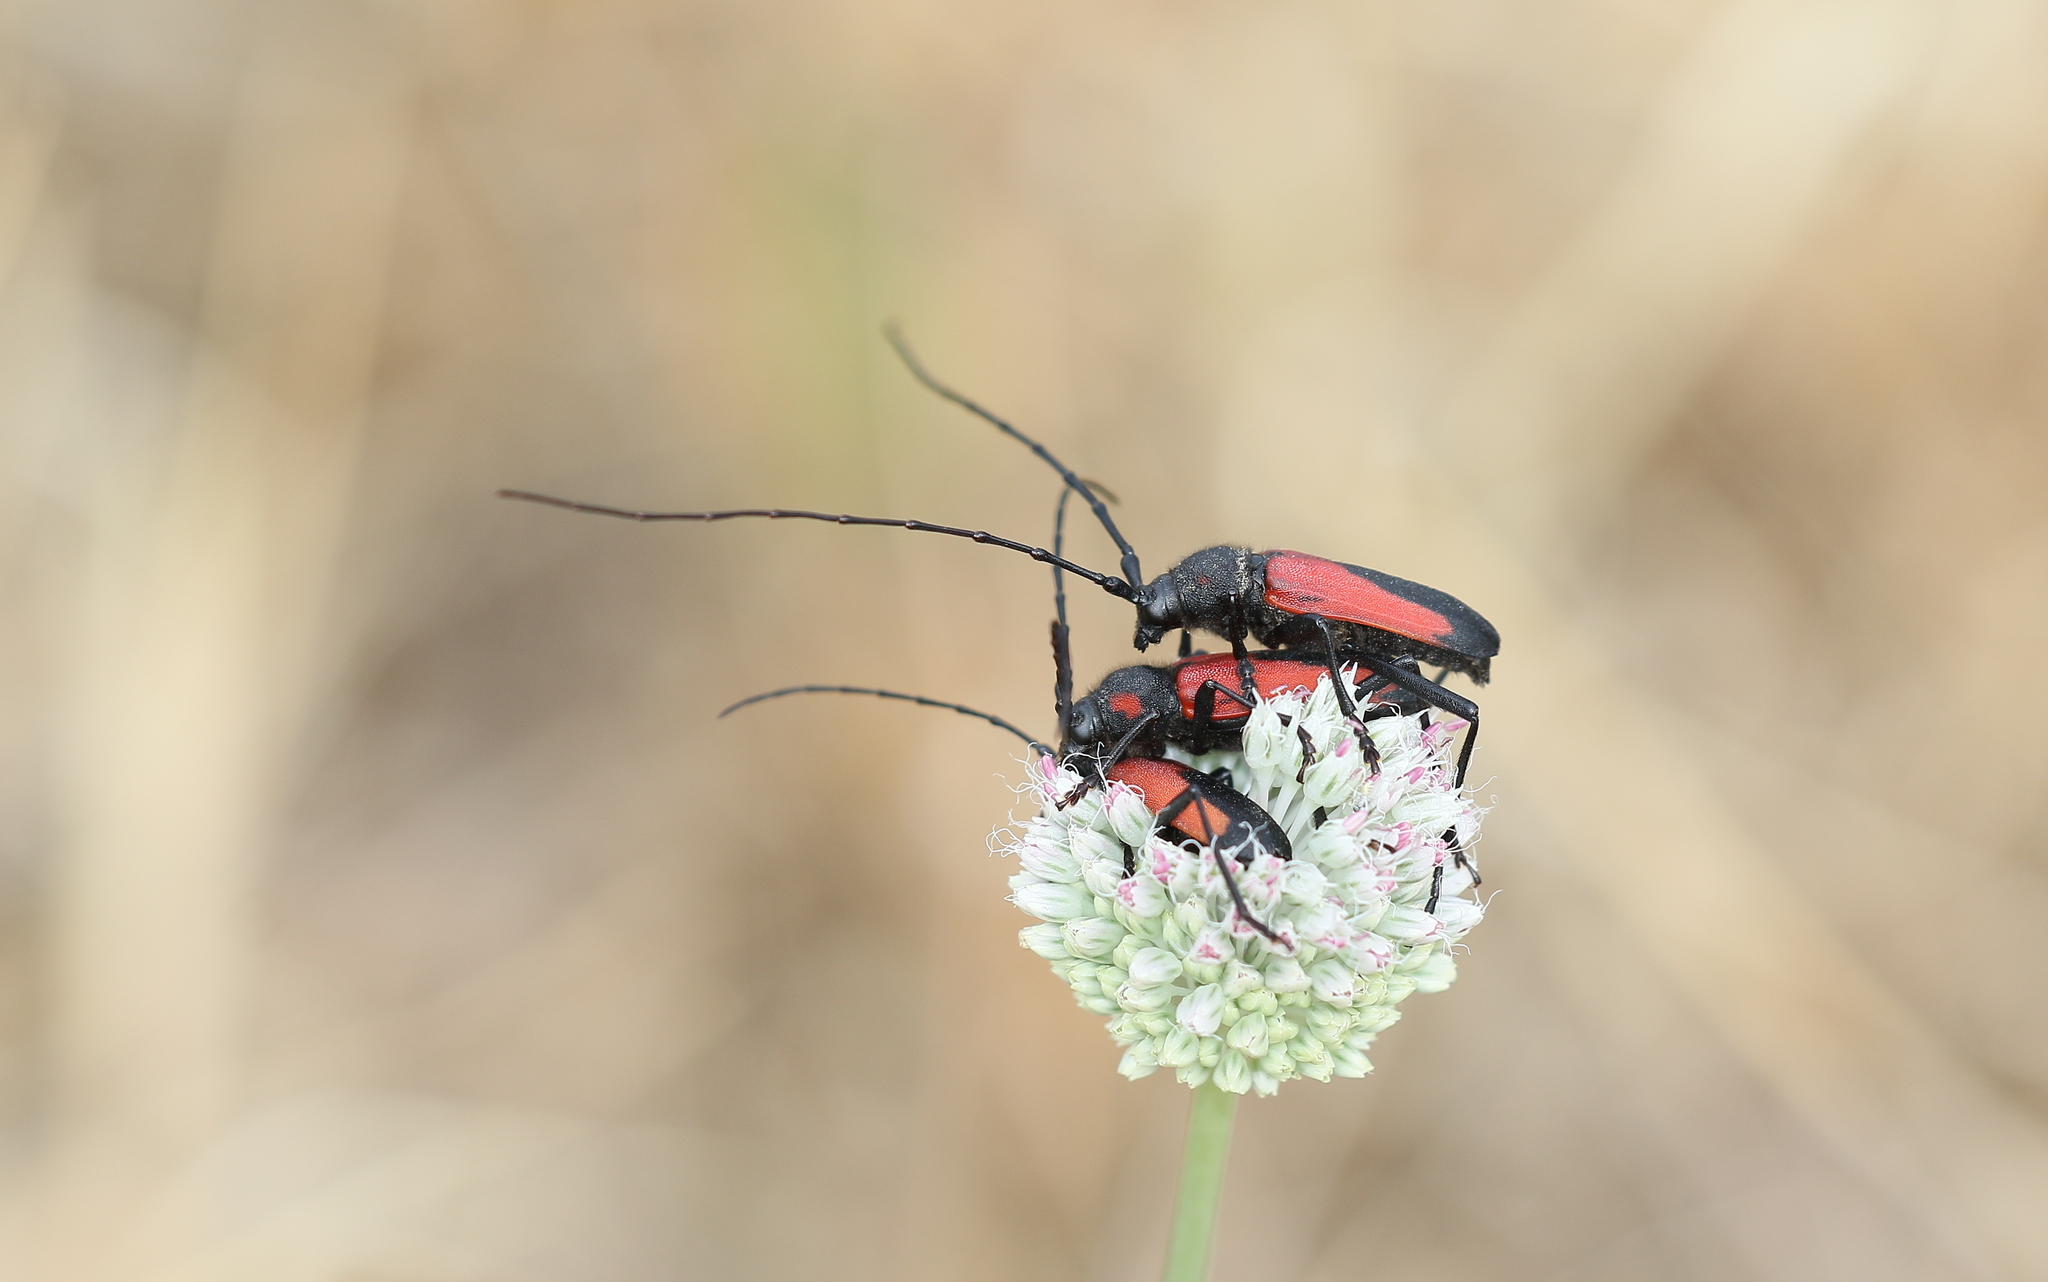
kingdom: Animalia
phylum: Arthropoda
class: Insecta
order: Coleoptera
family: Cerambycidae
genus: Purpuricenus
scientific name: Purpuricenus budensis
